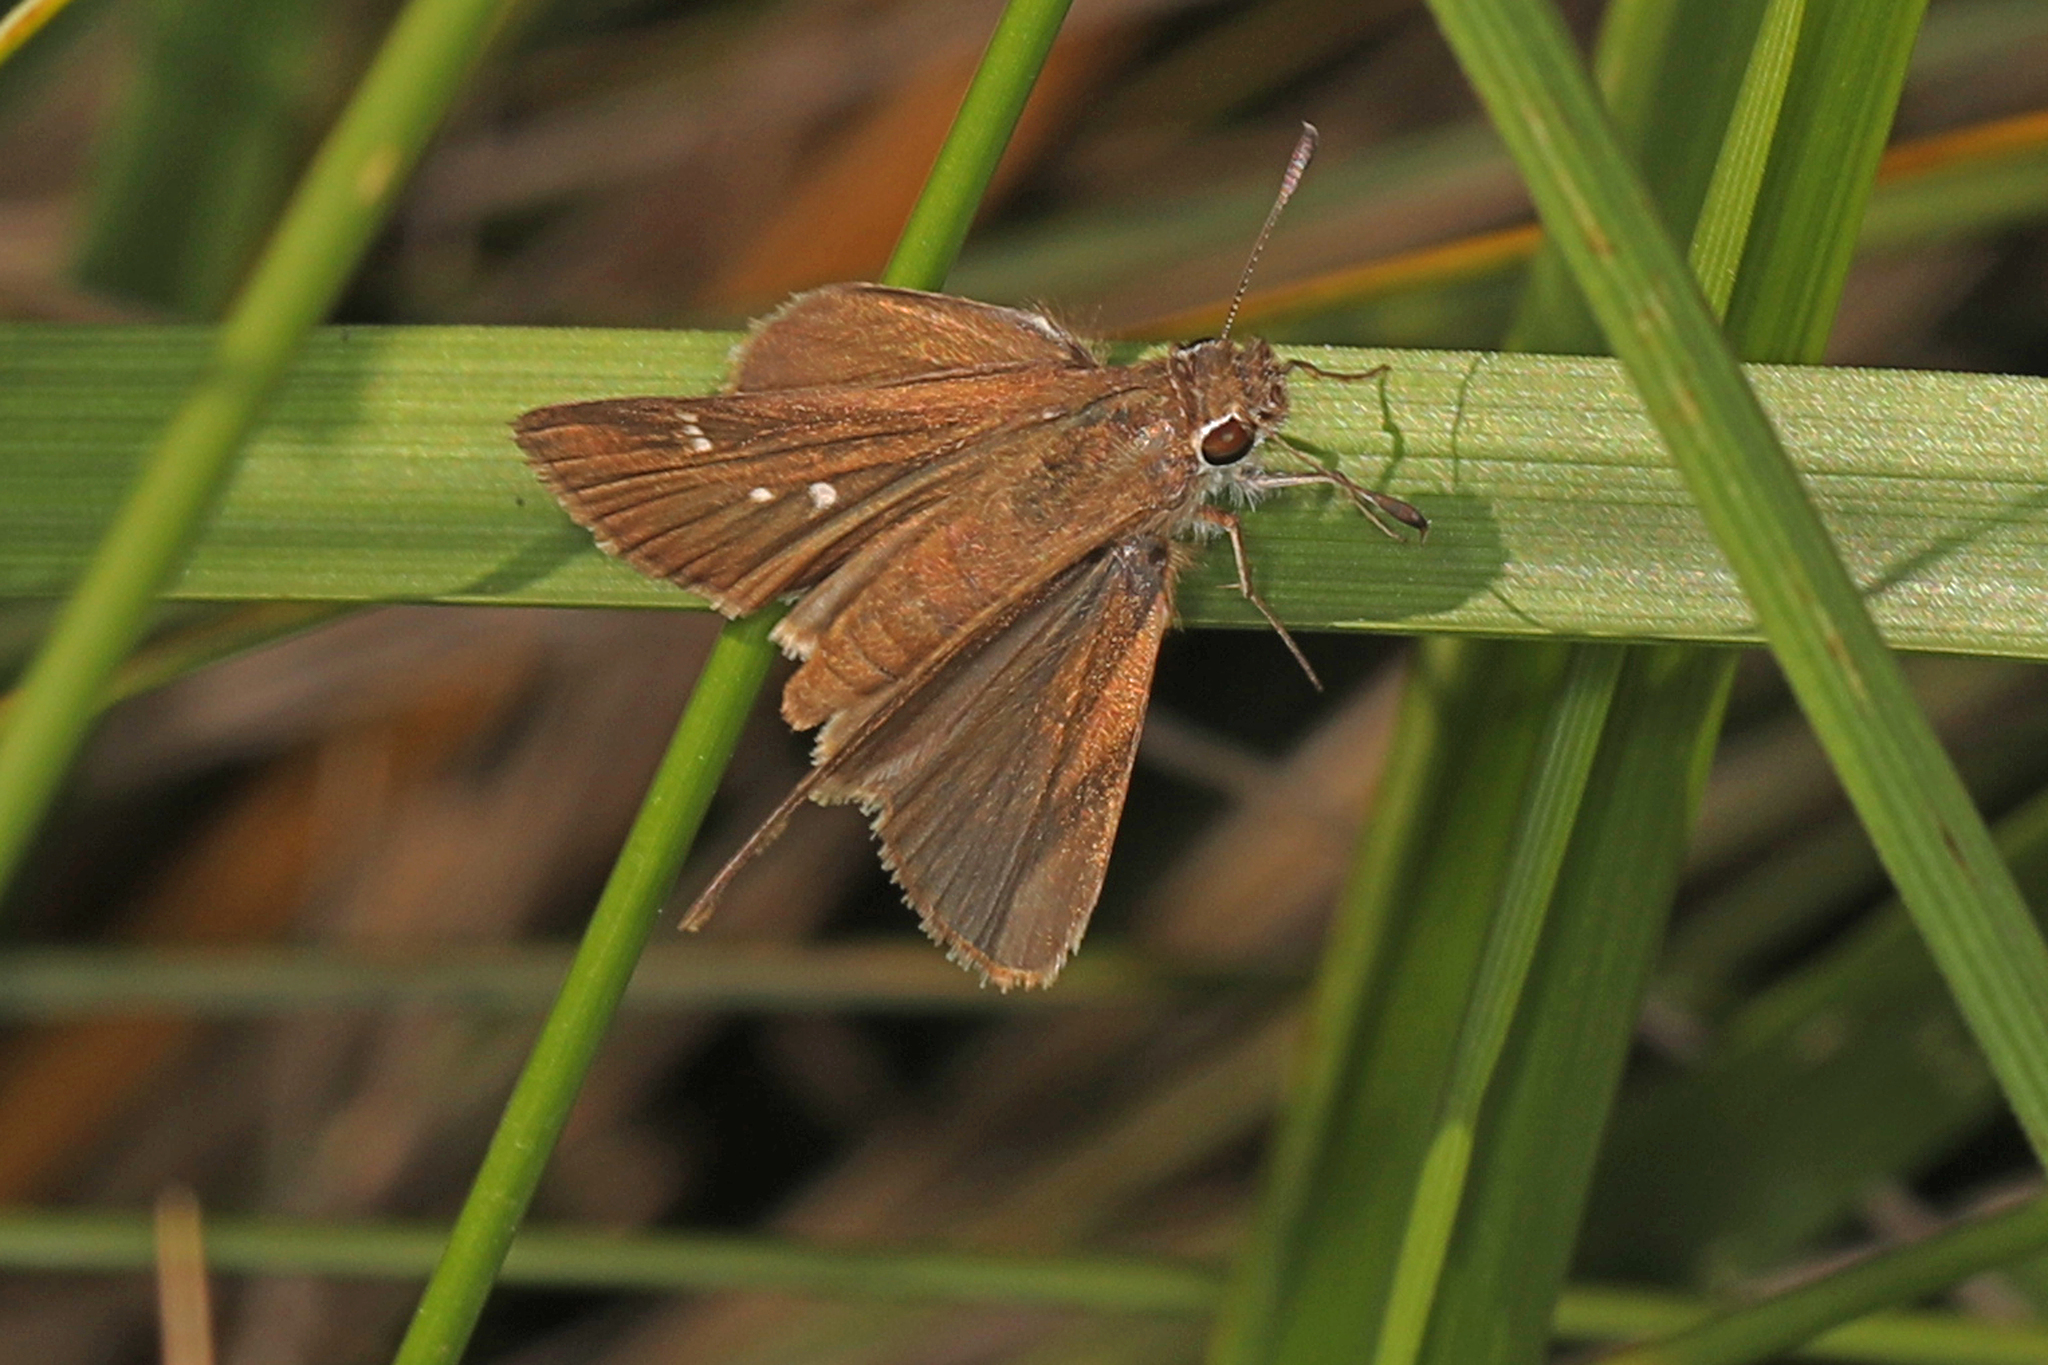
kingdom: Animalia
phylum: Arthropoda
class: Insecta
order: Lepidoptera
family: Hesperiidae
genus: Lerodea
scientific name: Lerodea eufala
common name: Eufala skipper
